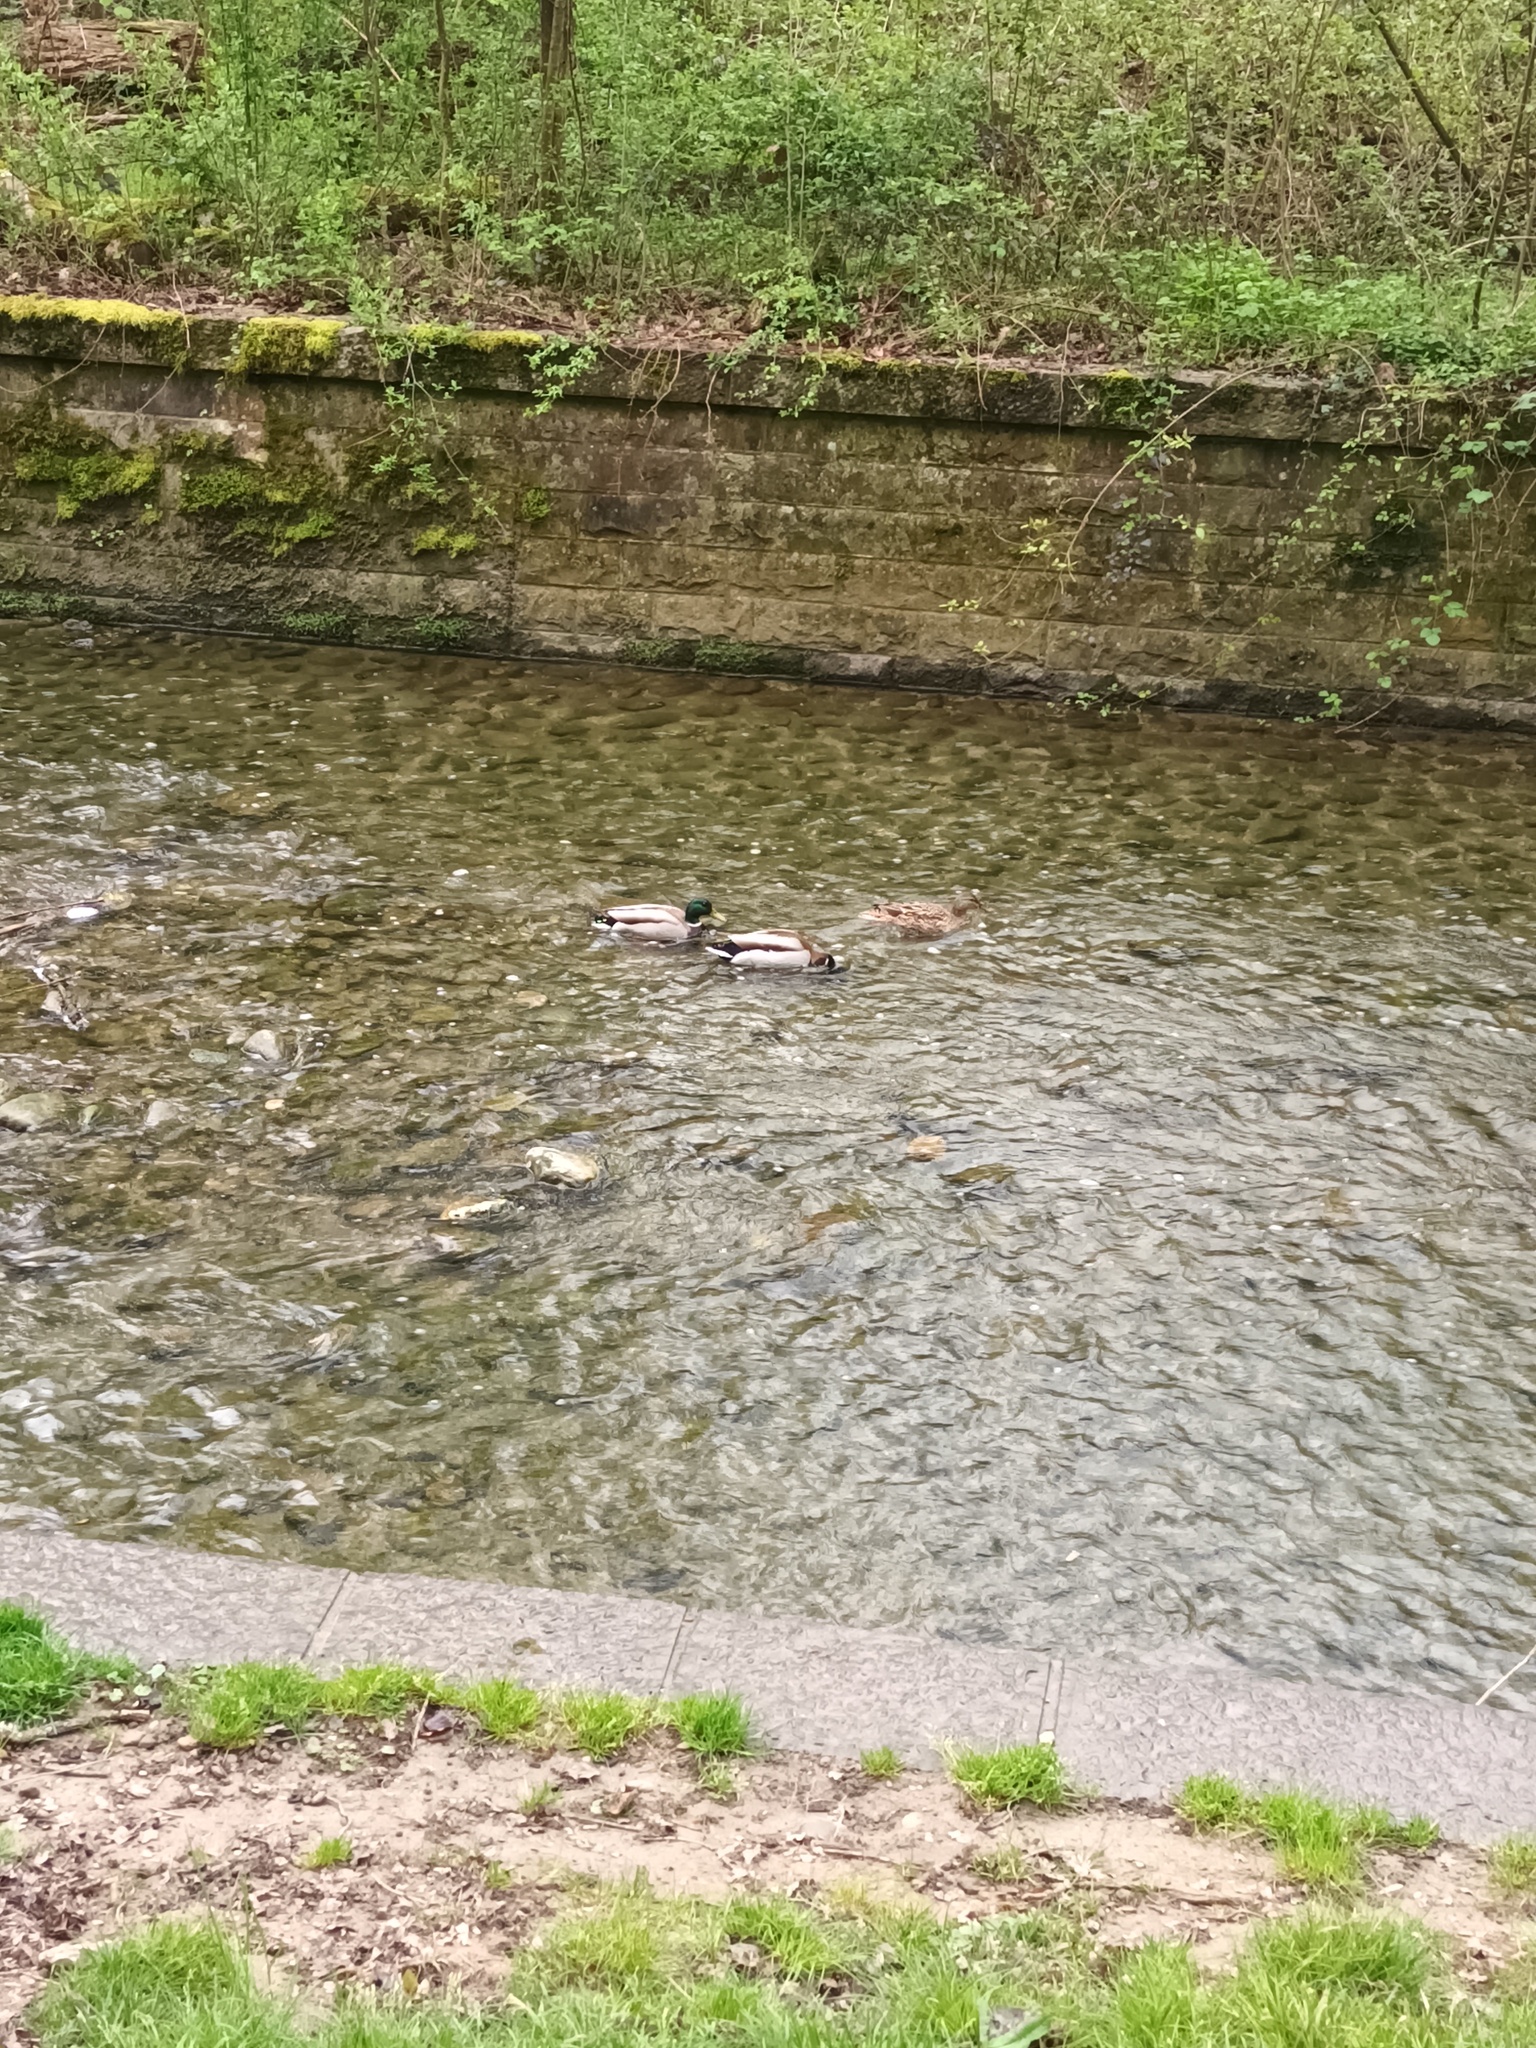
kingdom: Animalia
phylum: Chordata
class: Aves
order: Anseriformes
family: Anatidae
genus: Anas
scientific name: Anas platyrhynchos
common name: Mallard
